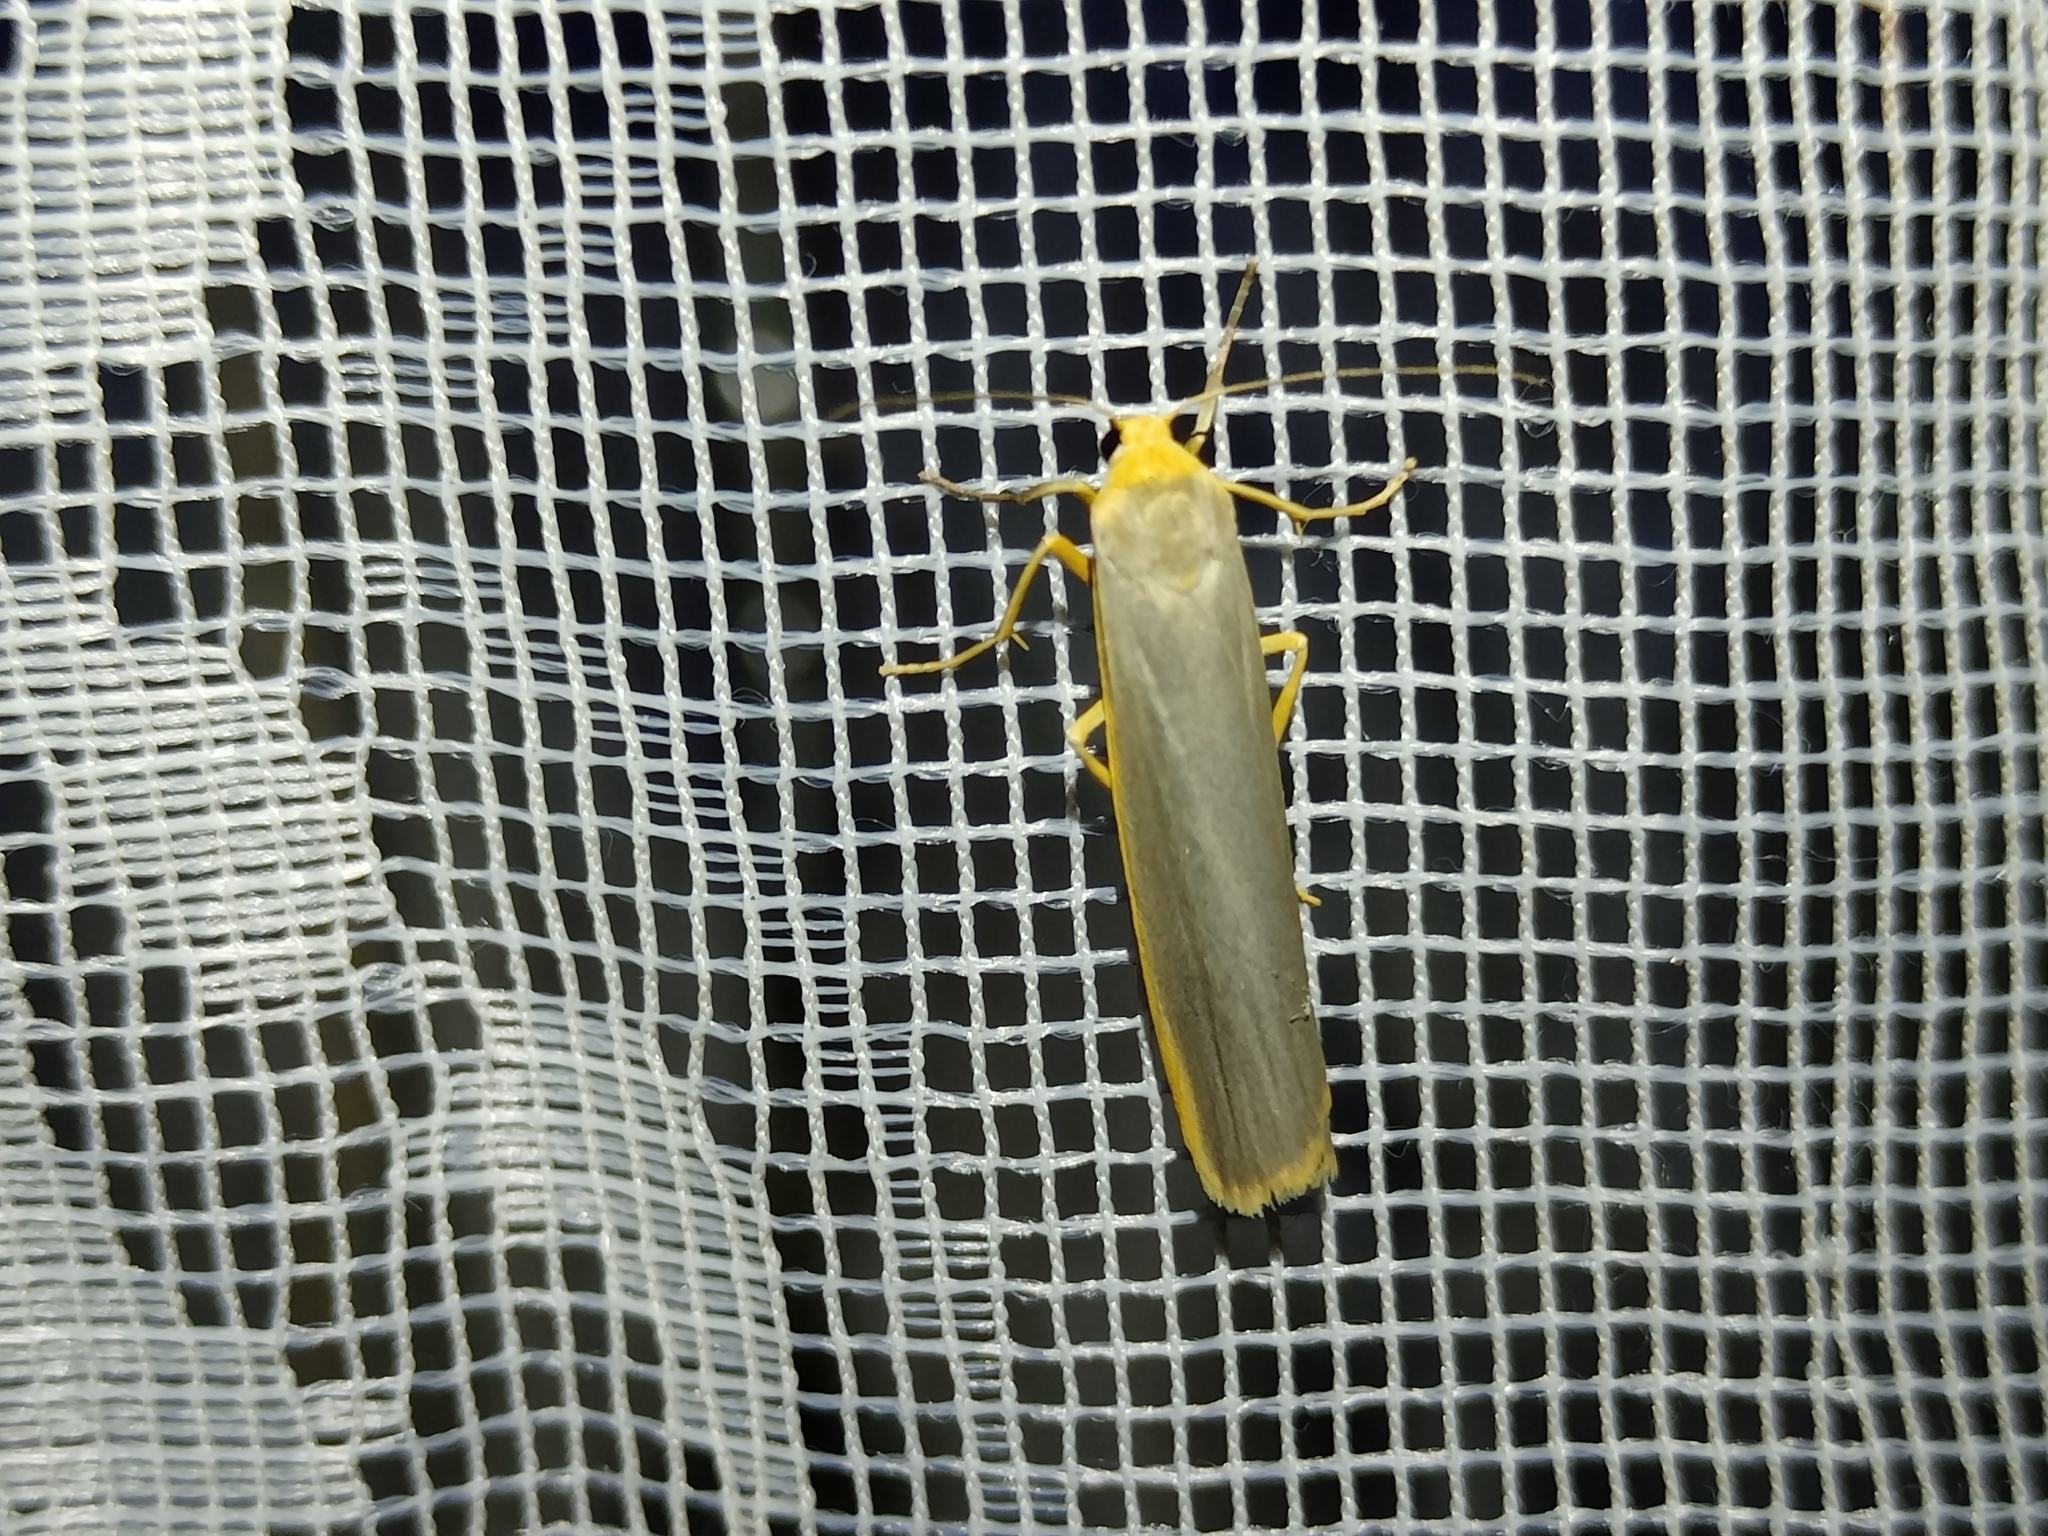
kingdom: Animalia
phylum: Arthropoda
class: Insecta
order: Lepidoptera
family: Erebidae
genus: Manulea
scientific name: Manulea complana
